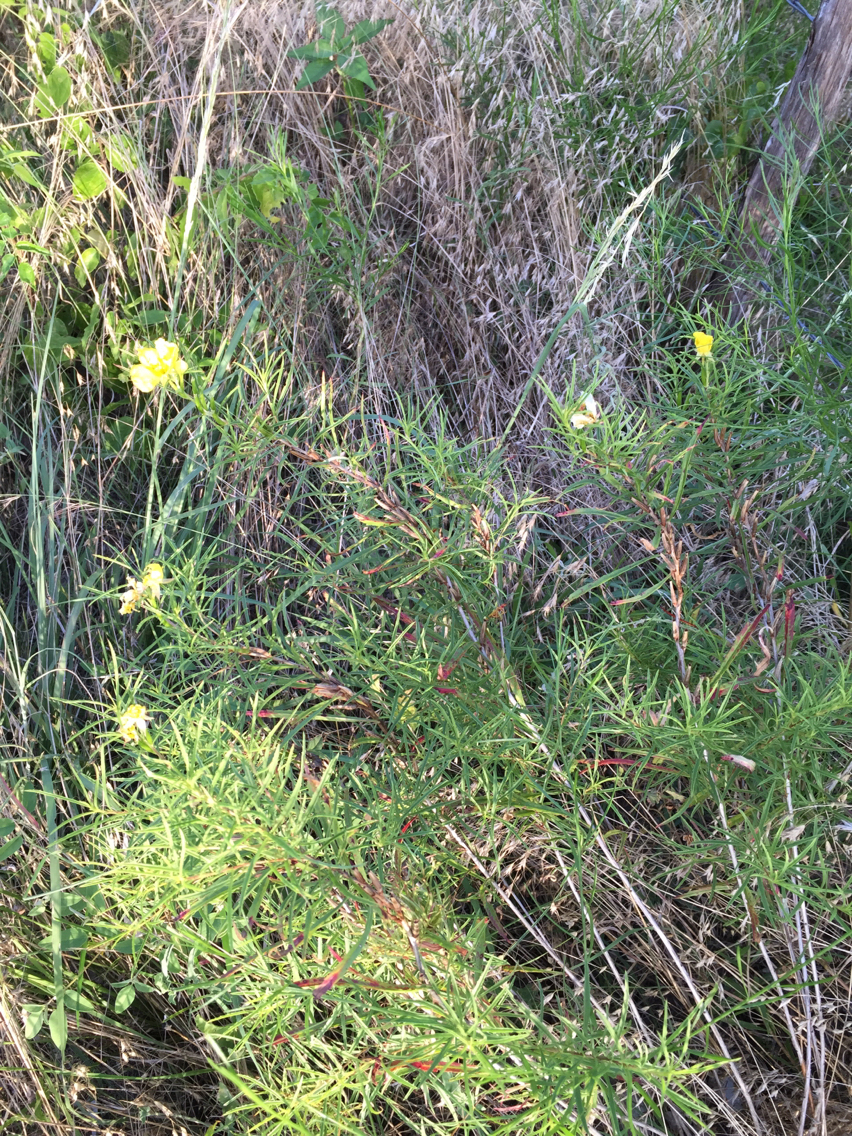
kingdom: Plantae
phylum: Tracheophyta
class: Magnoliopsida
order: Myrtales
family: Onagraceae
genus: Oenothera
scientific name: Oenothera
